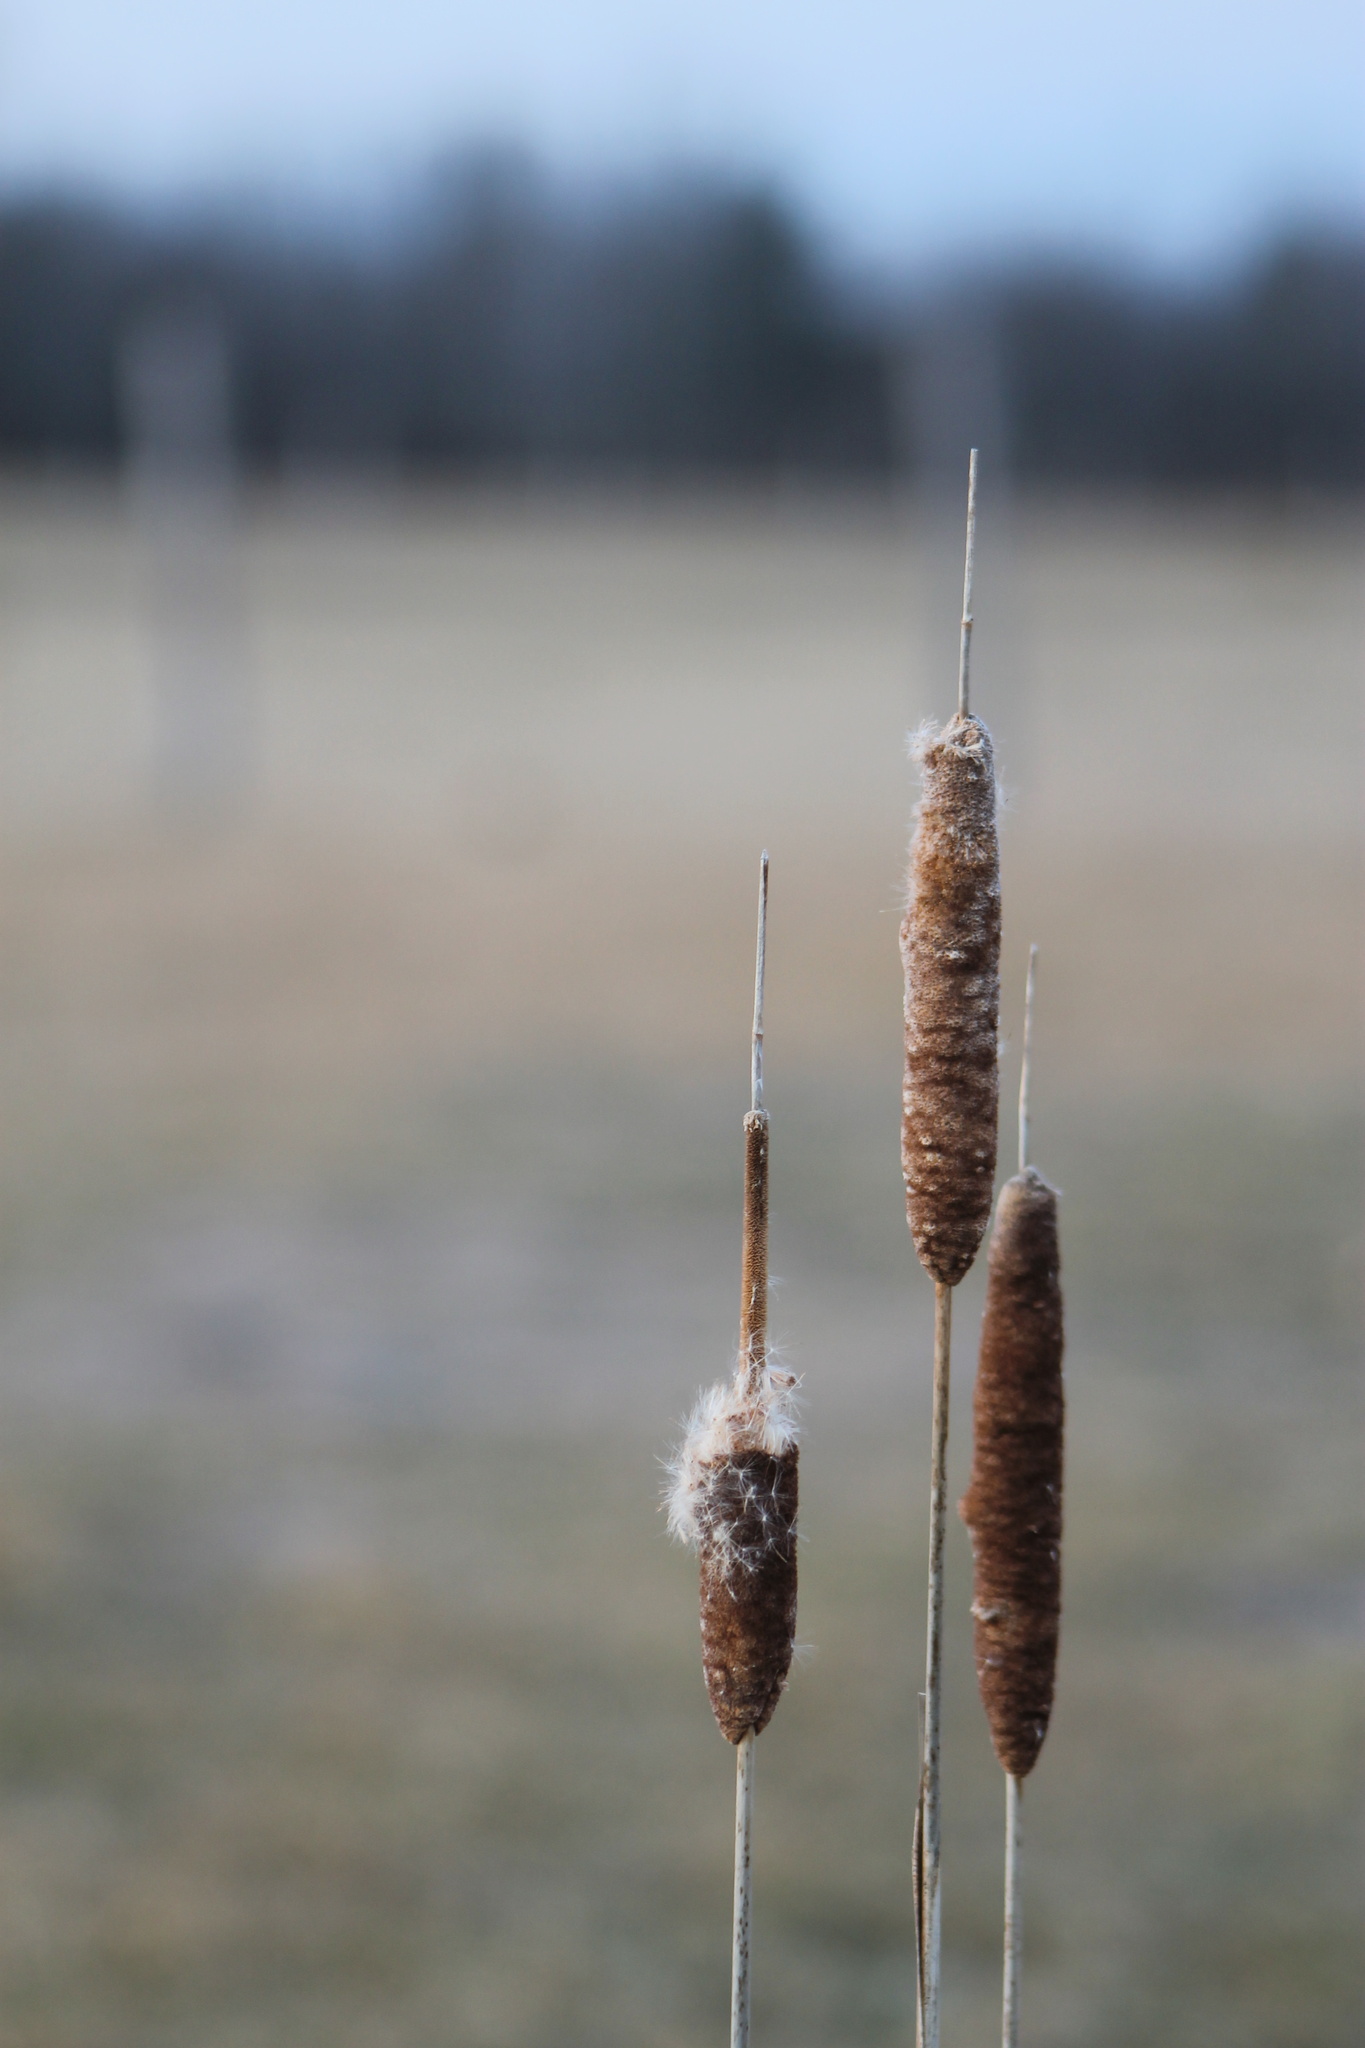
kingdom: Plantae
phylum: Tracheophyta
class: Liliopsida
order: Poales
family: Typhaceae
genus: Typha
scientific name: Typha
